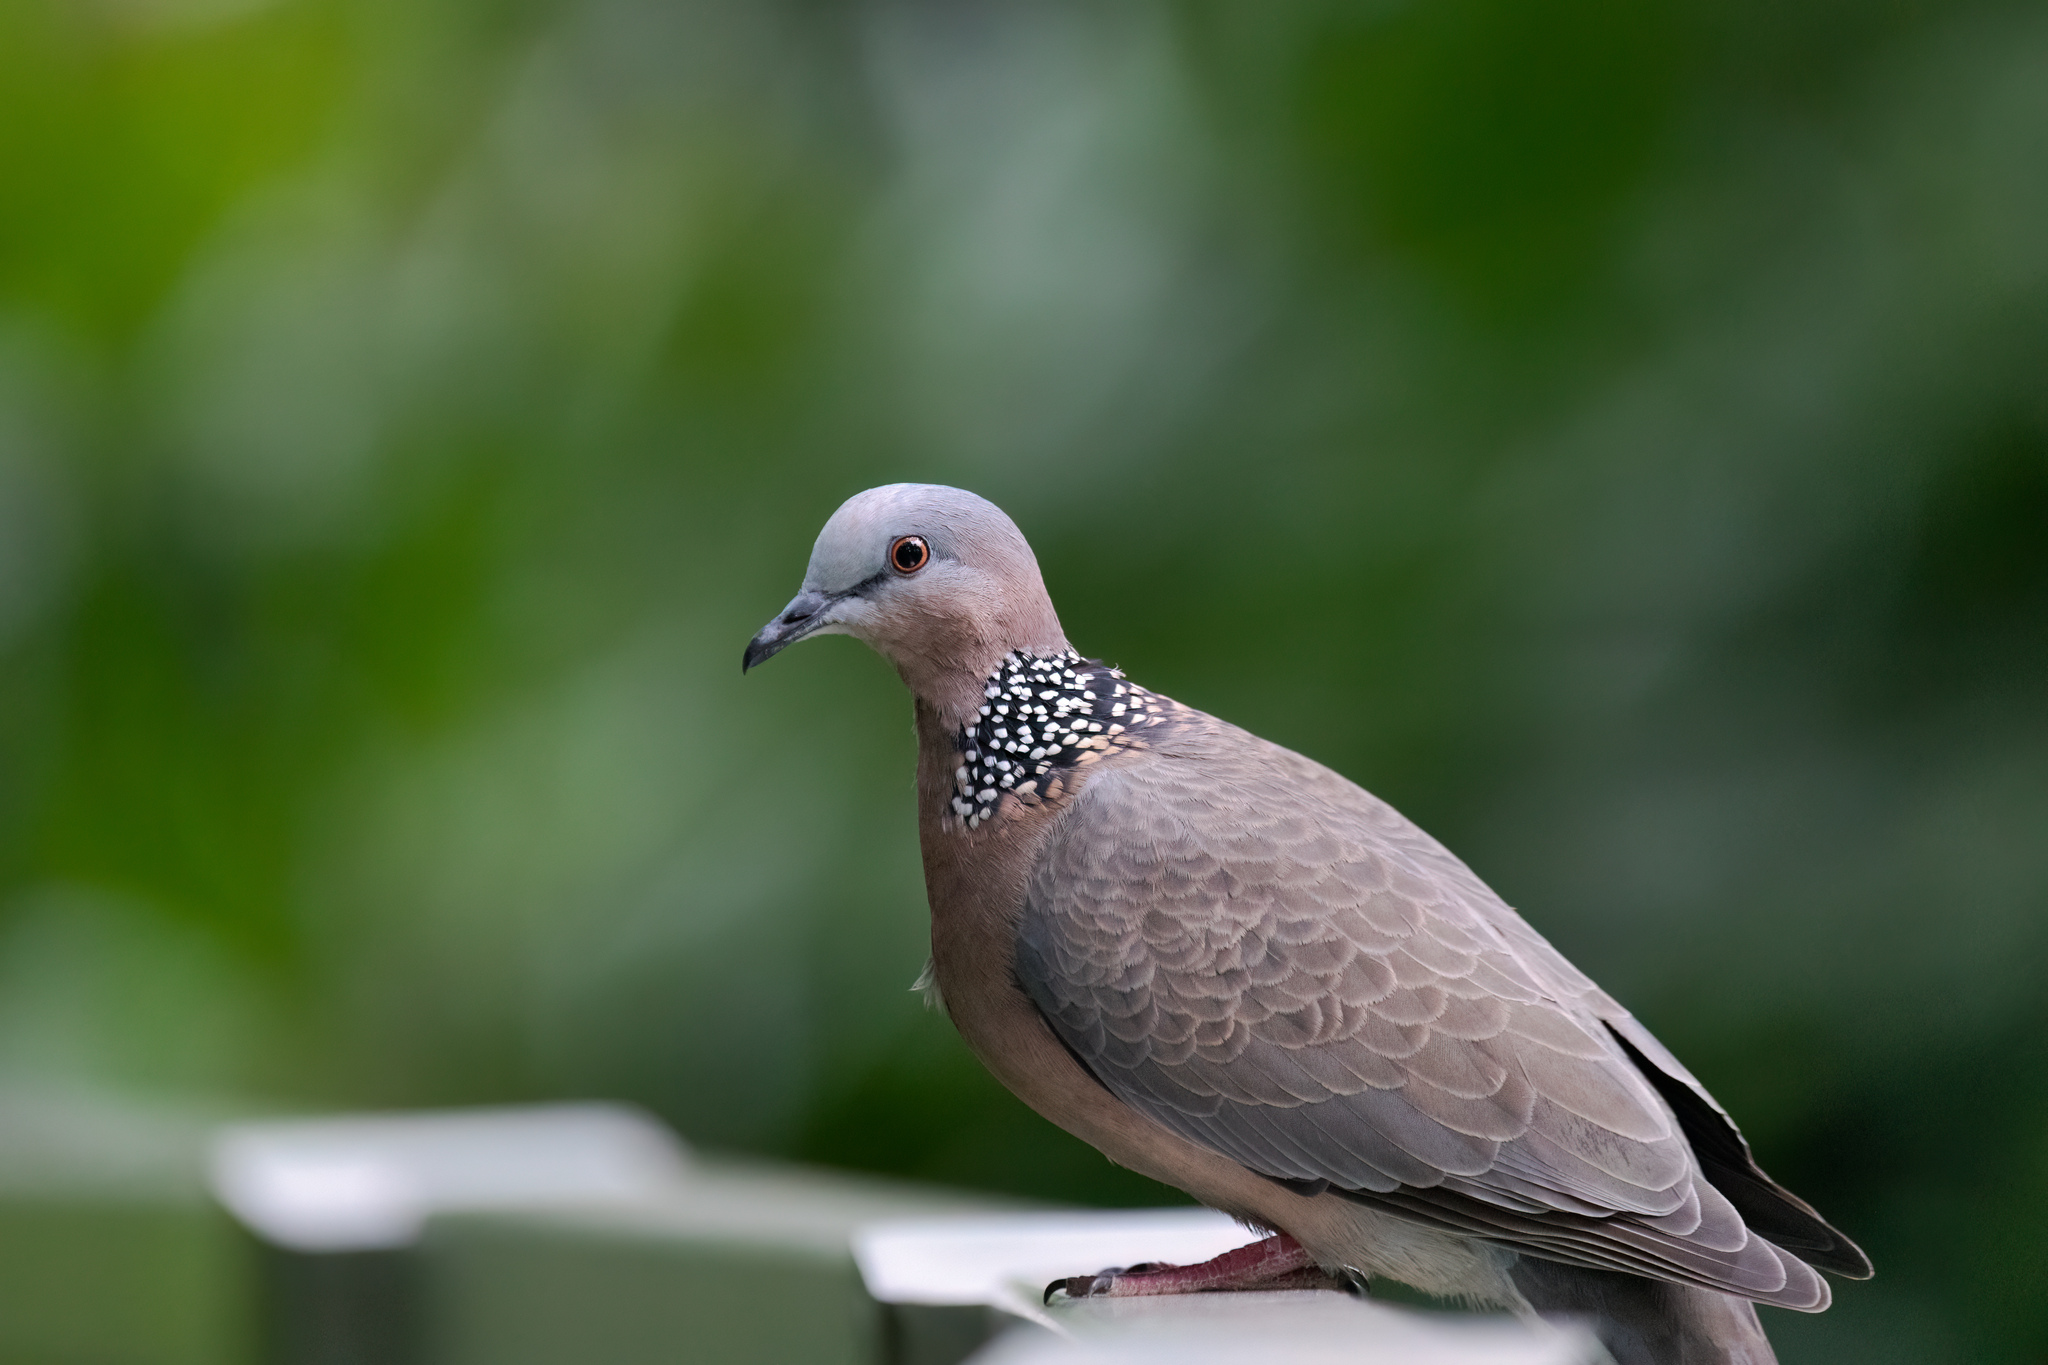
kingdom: Animalia
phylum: Chordata
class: Aves
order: Columbiformes
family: Columbidae
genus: Spilopelia
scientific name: Spilopelia chinensis
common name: Spotted dove
